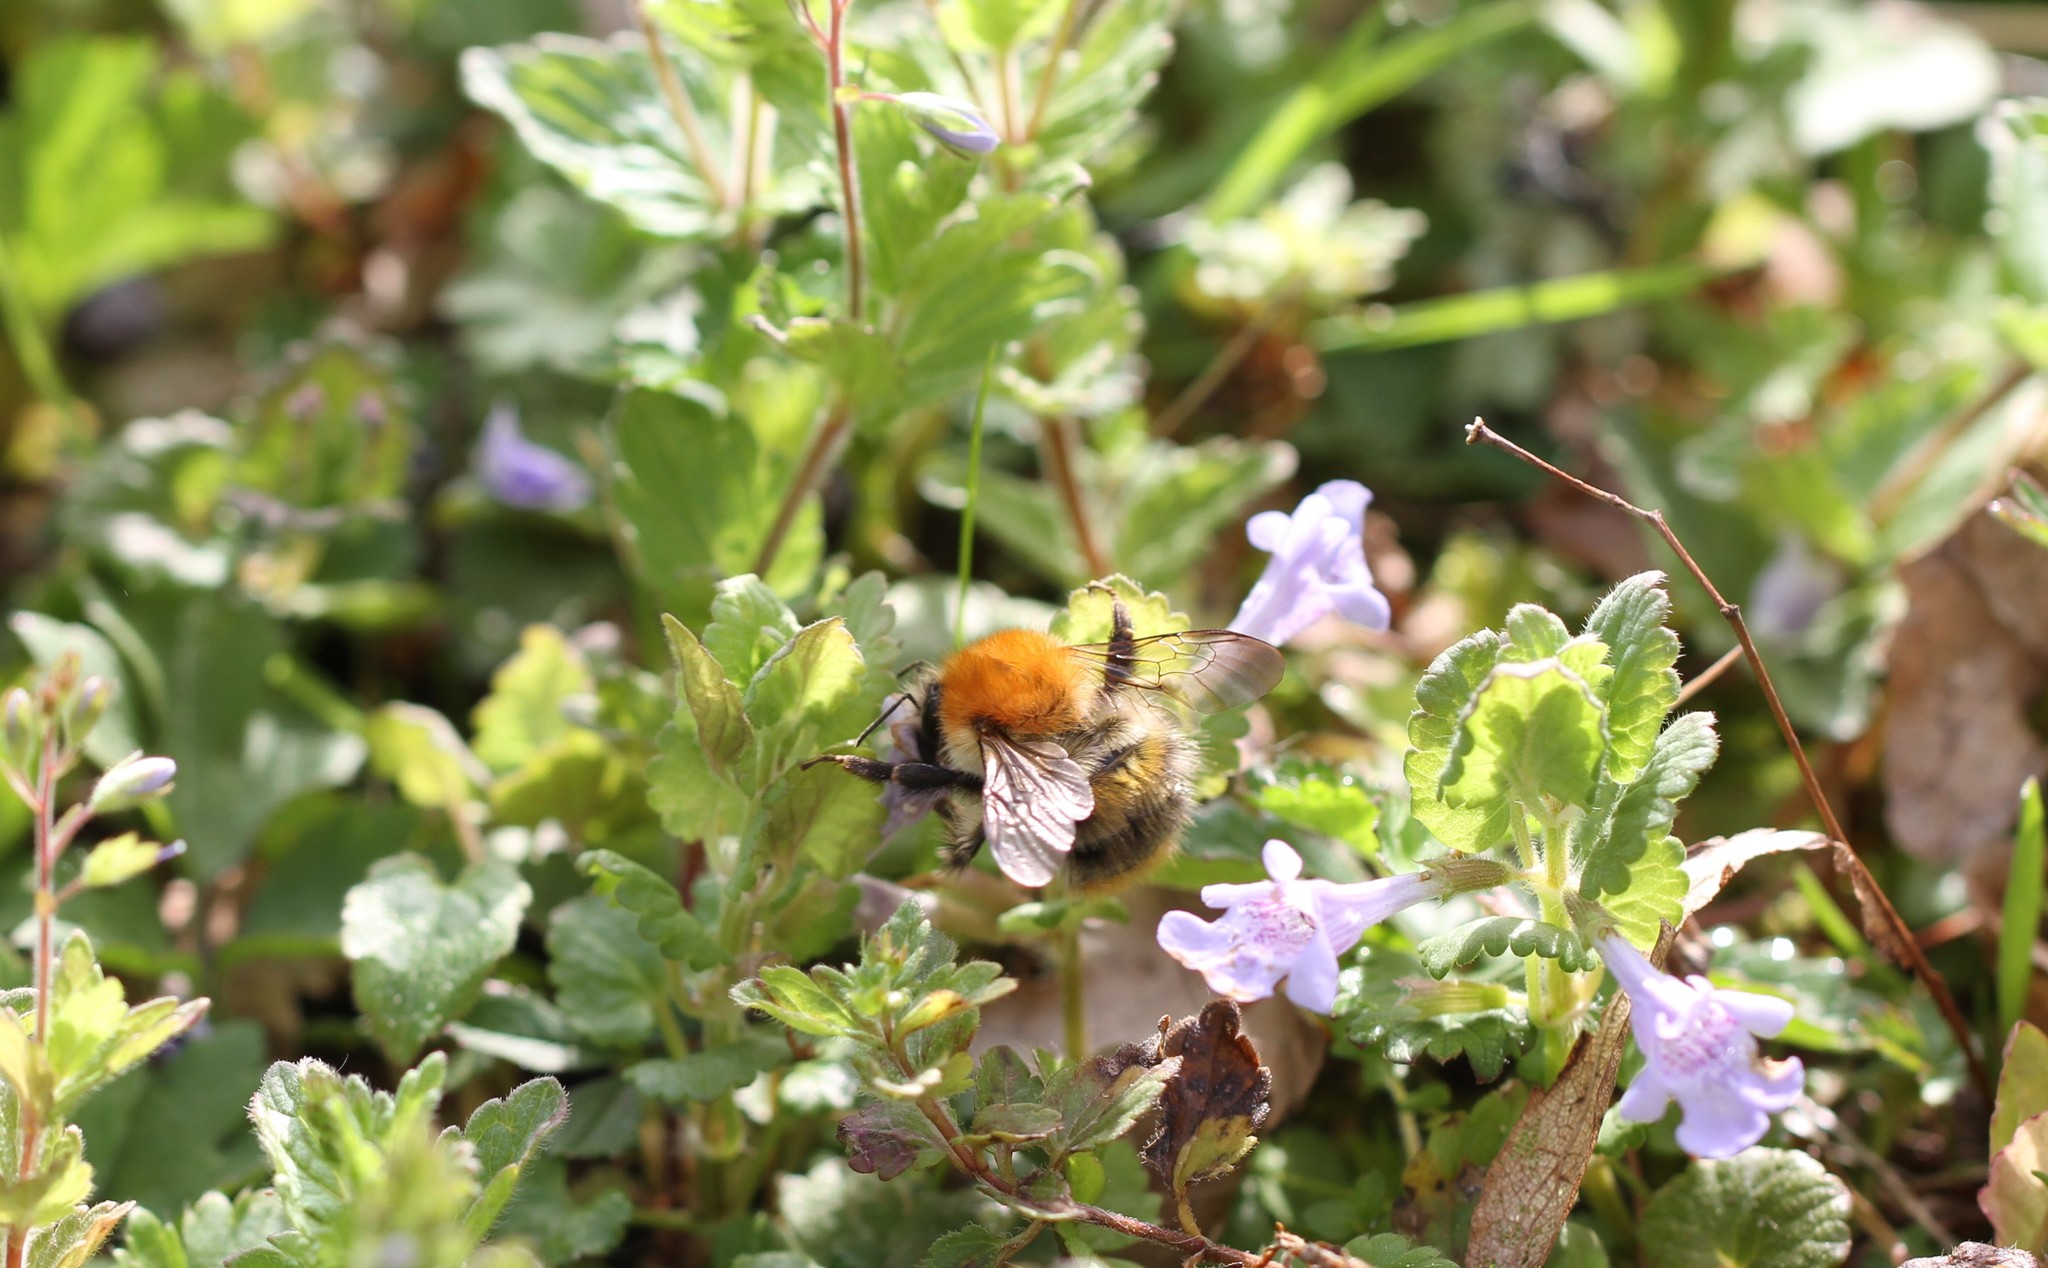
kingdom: Animalia
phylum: Arthropoda
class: Insecta
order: Hymenoptera
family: Apidae
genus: Bombus
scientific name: Bombus pascuorum
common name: Common carder bee
